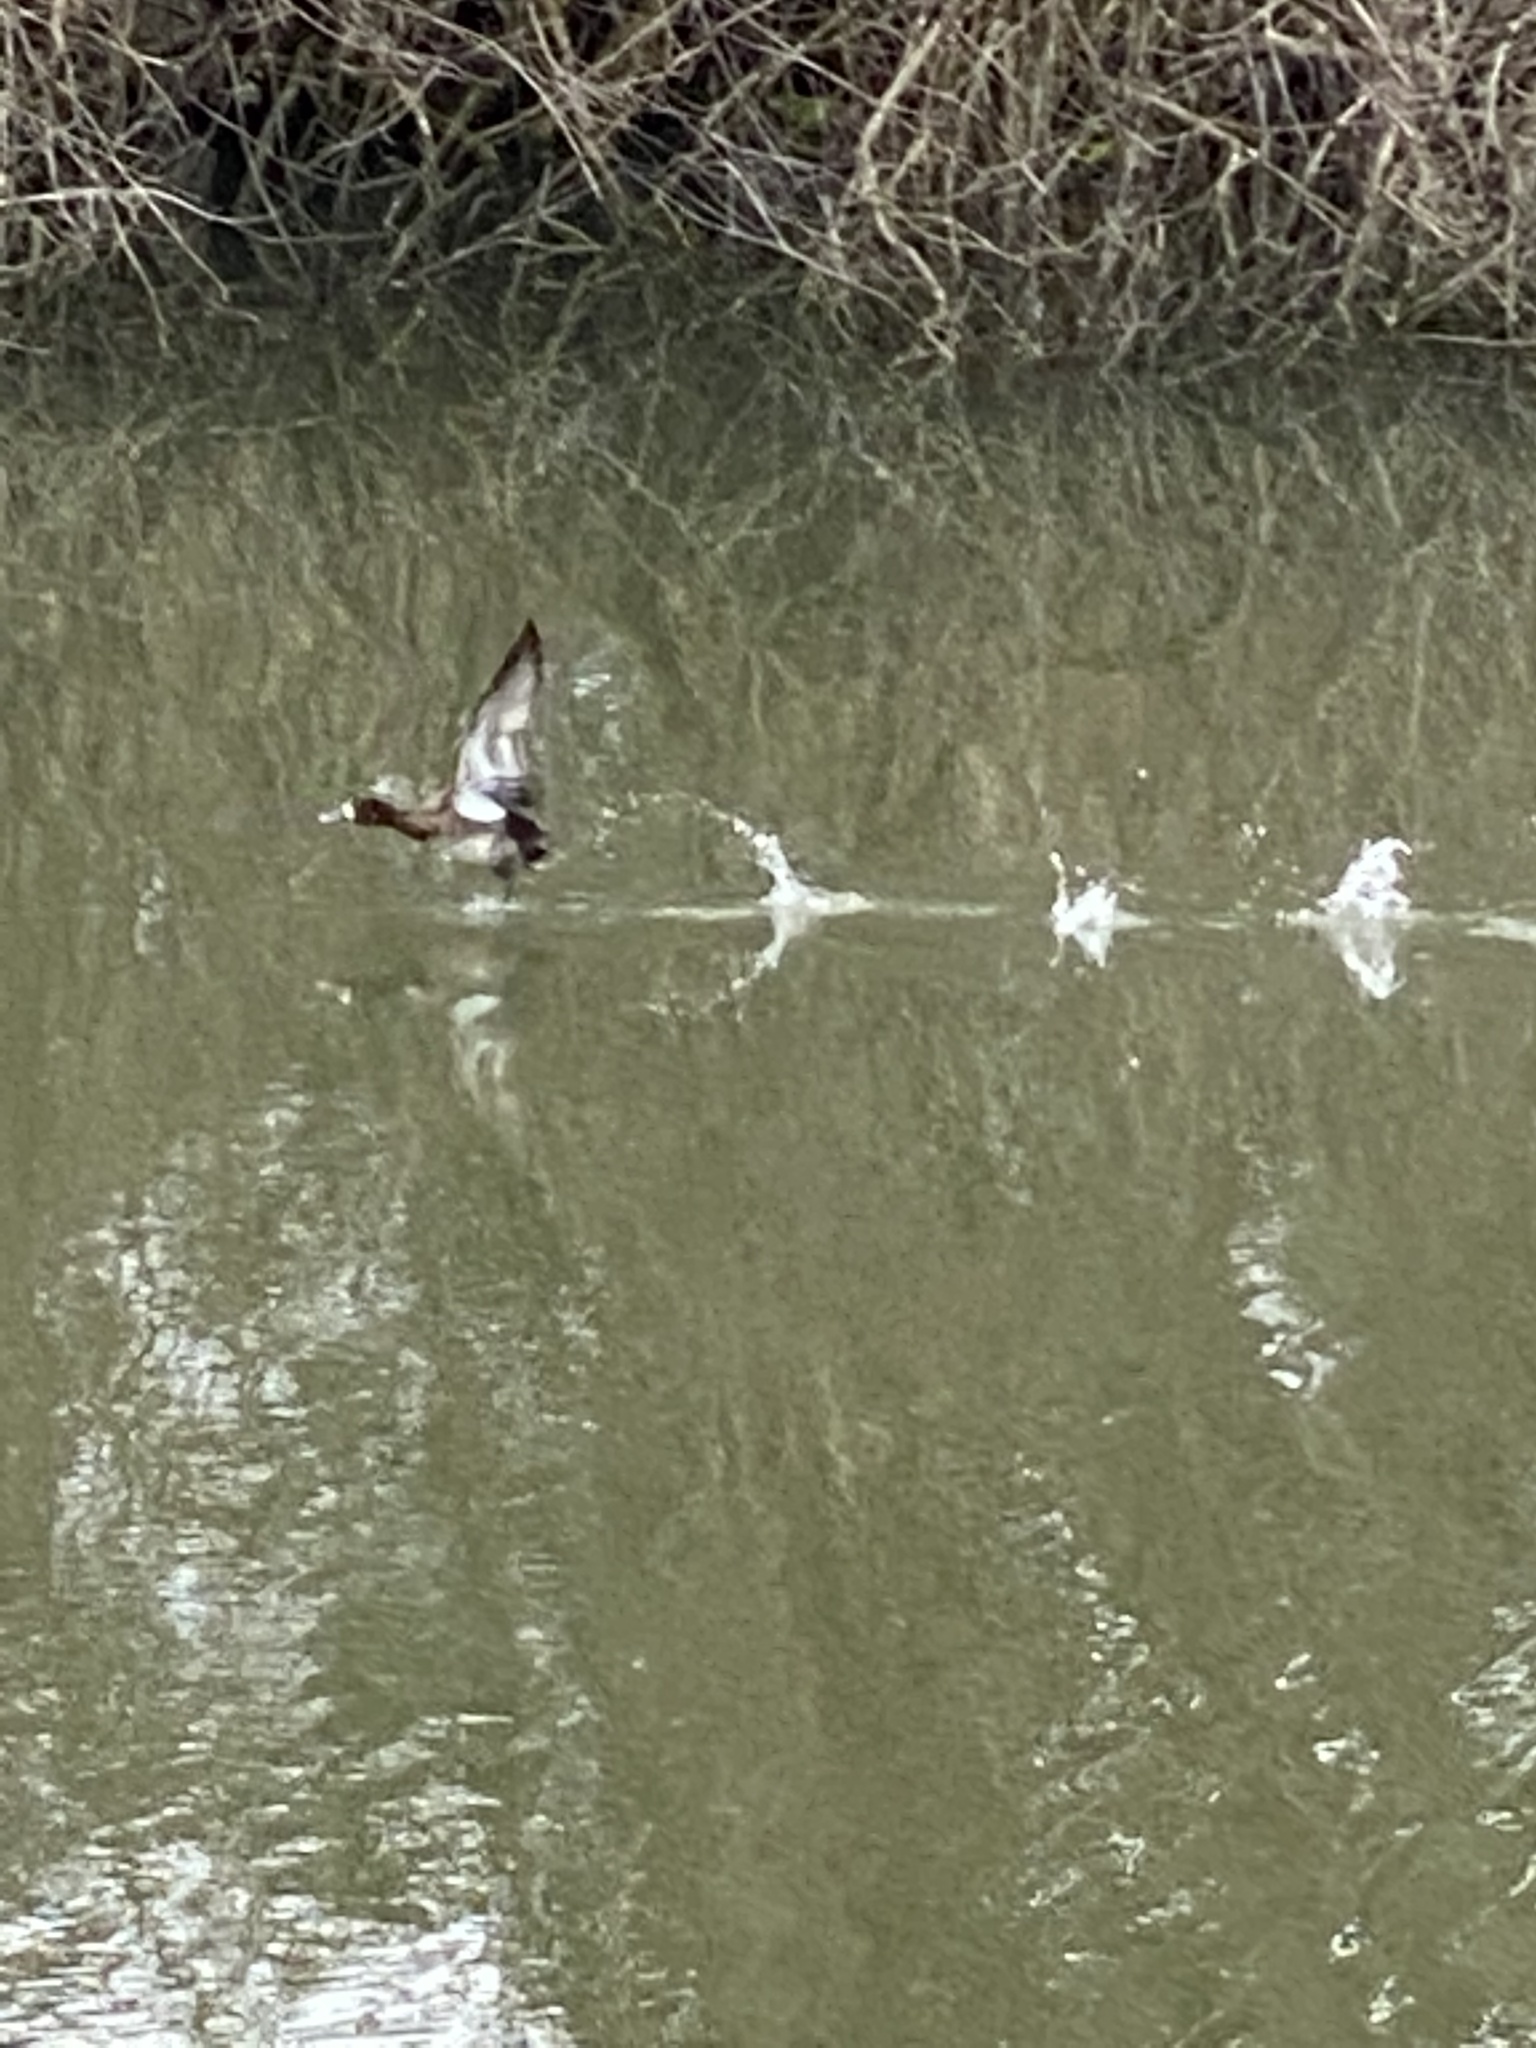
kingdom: Animalia
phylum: Chordata
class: Aves
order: Anseriformes
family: Anatidae
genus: Aythya
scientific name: Aythya affinis
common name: Lesser scaup
